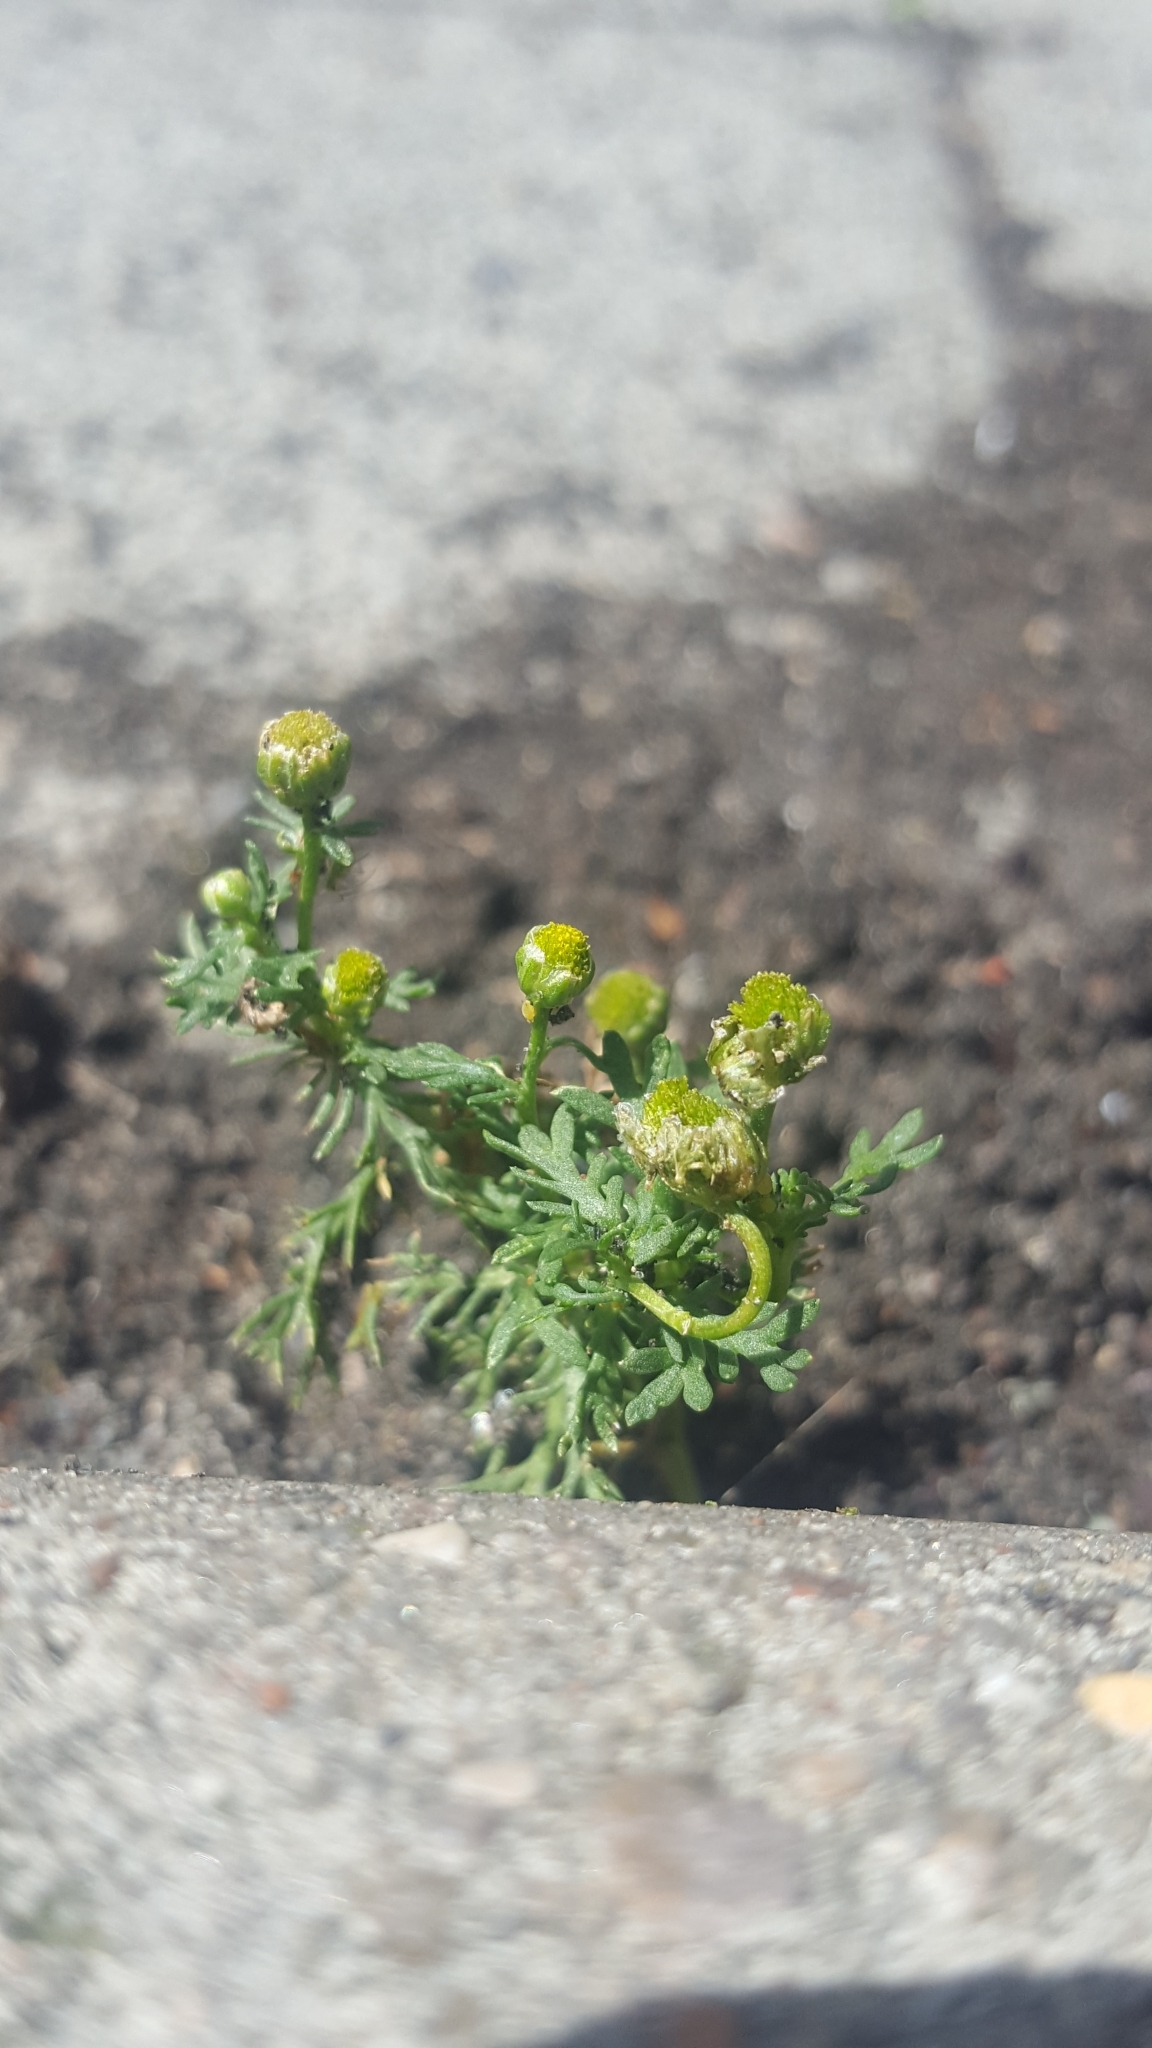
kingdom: Plantae
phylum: Tracheophyta
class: Magnoliopsida
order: Asterales
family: Asteraceae
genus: Matricaria
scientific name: Matricaria discoidea
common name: Disc mayweed
